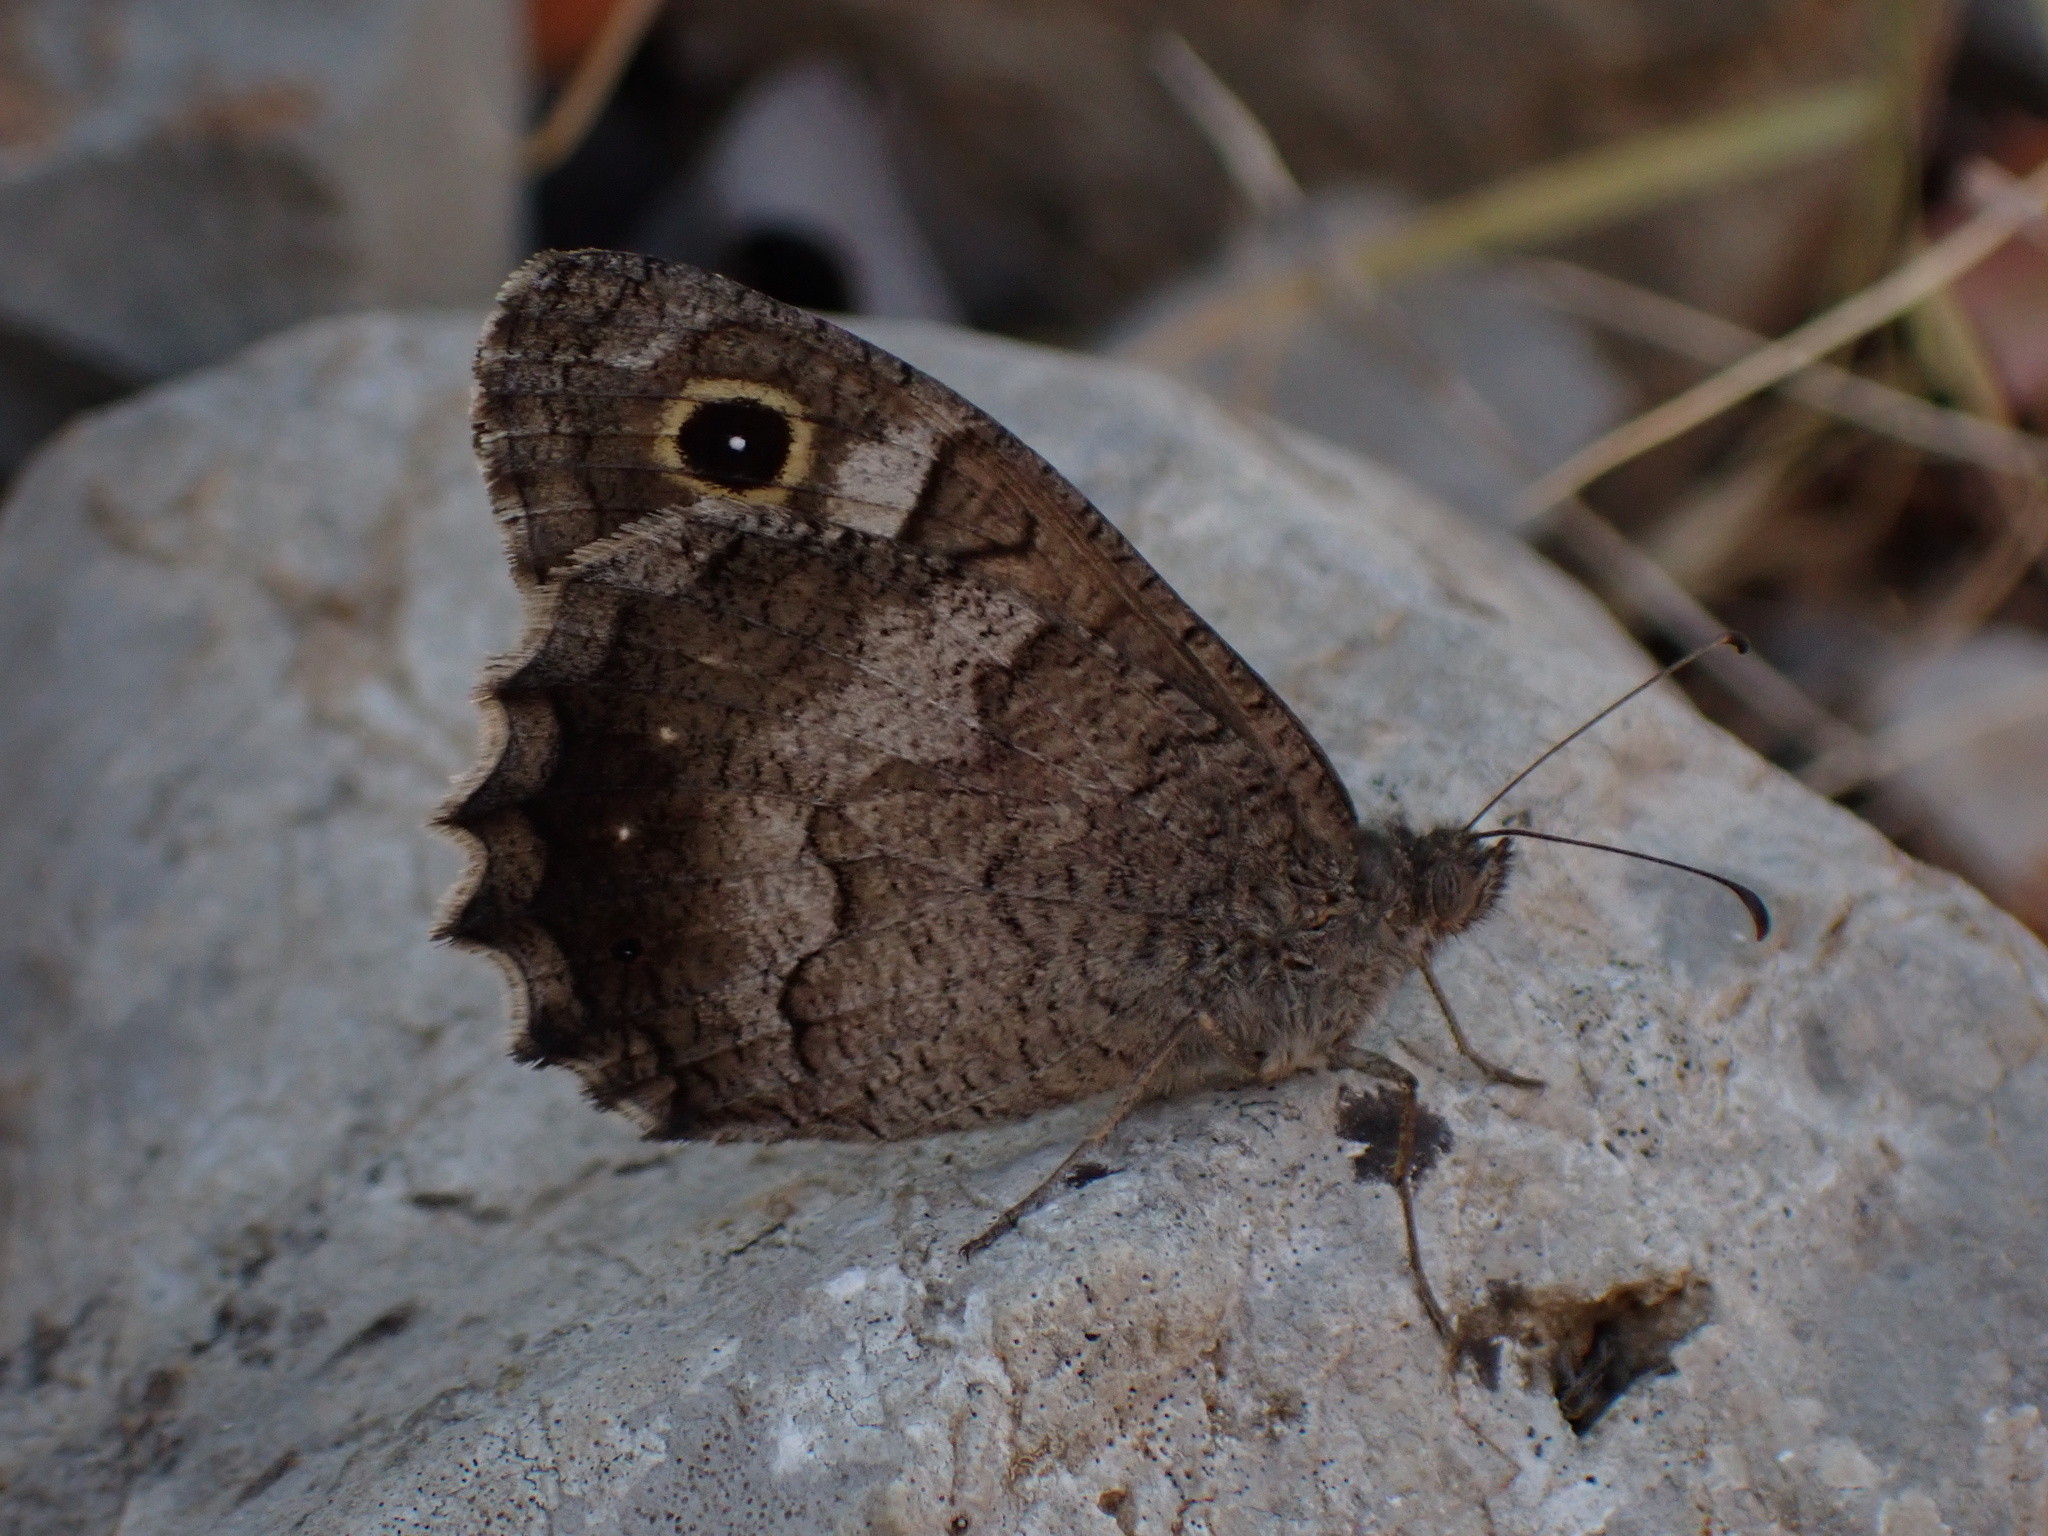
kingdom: Animalia
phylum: Arthropoda
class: Insecta
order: Lepidoptera
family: Nymphalidae
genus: Hipparchia
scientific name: Hipparchia statilinus
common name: Tree grayling
